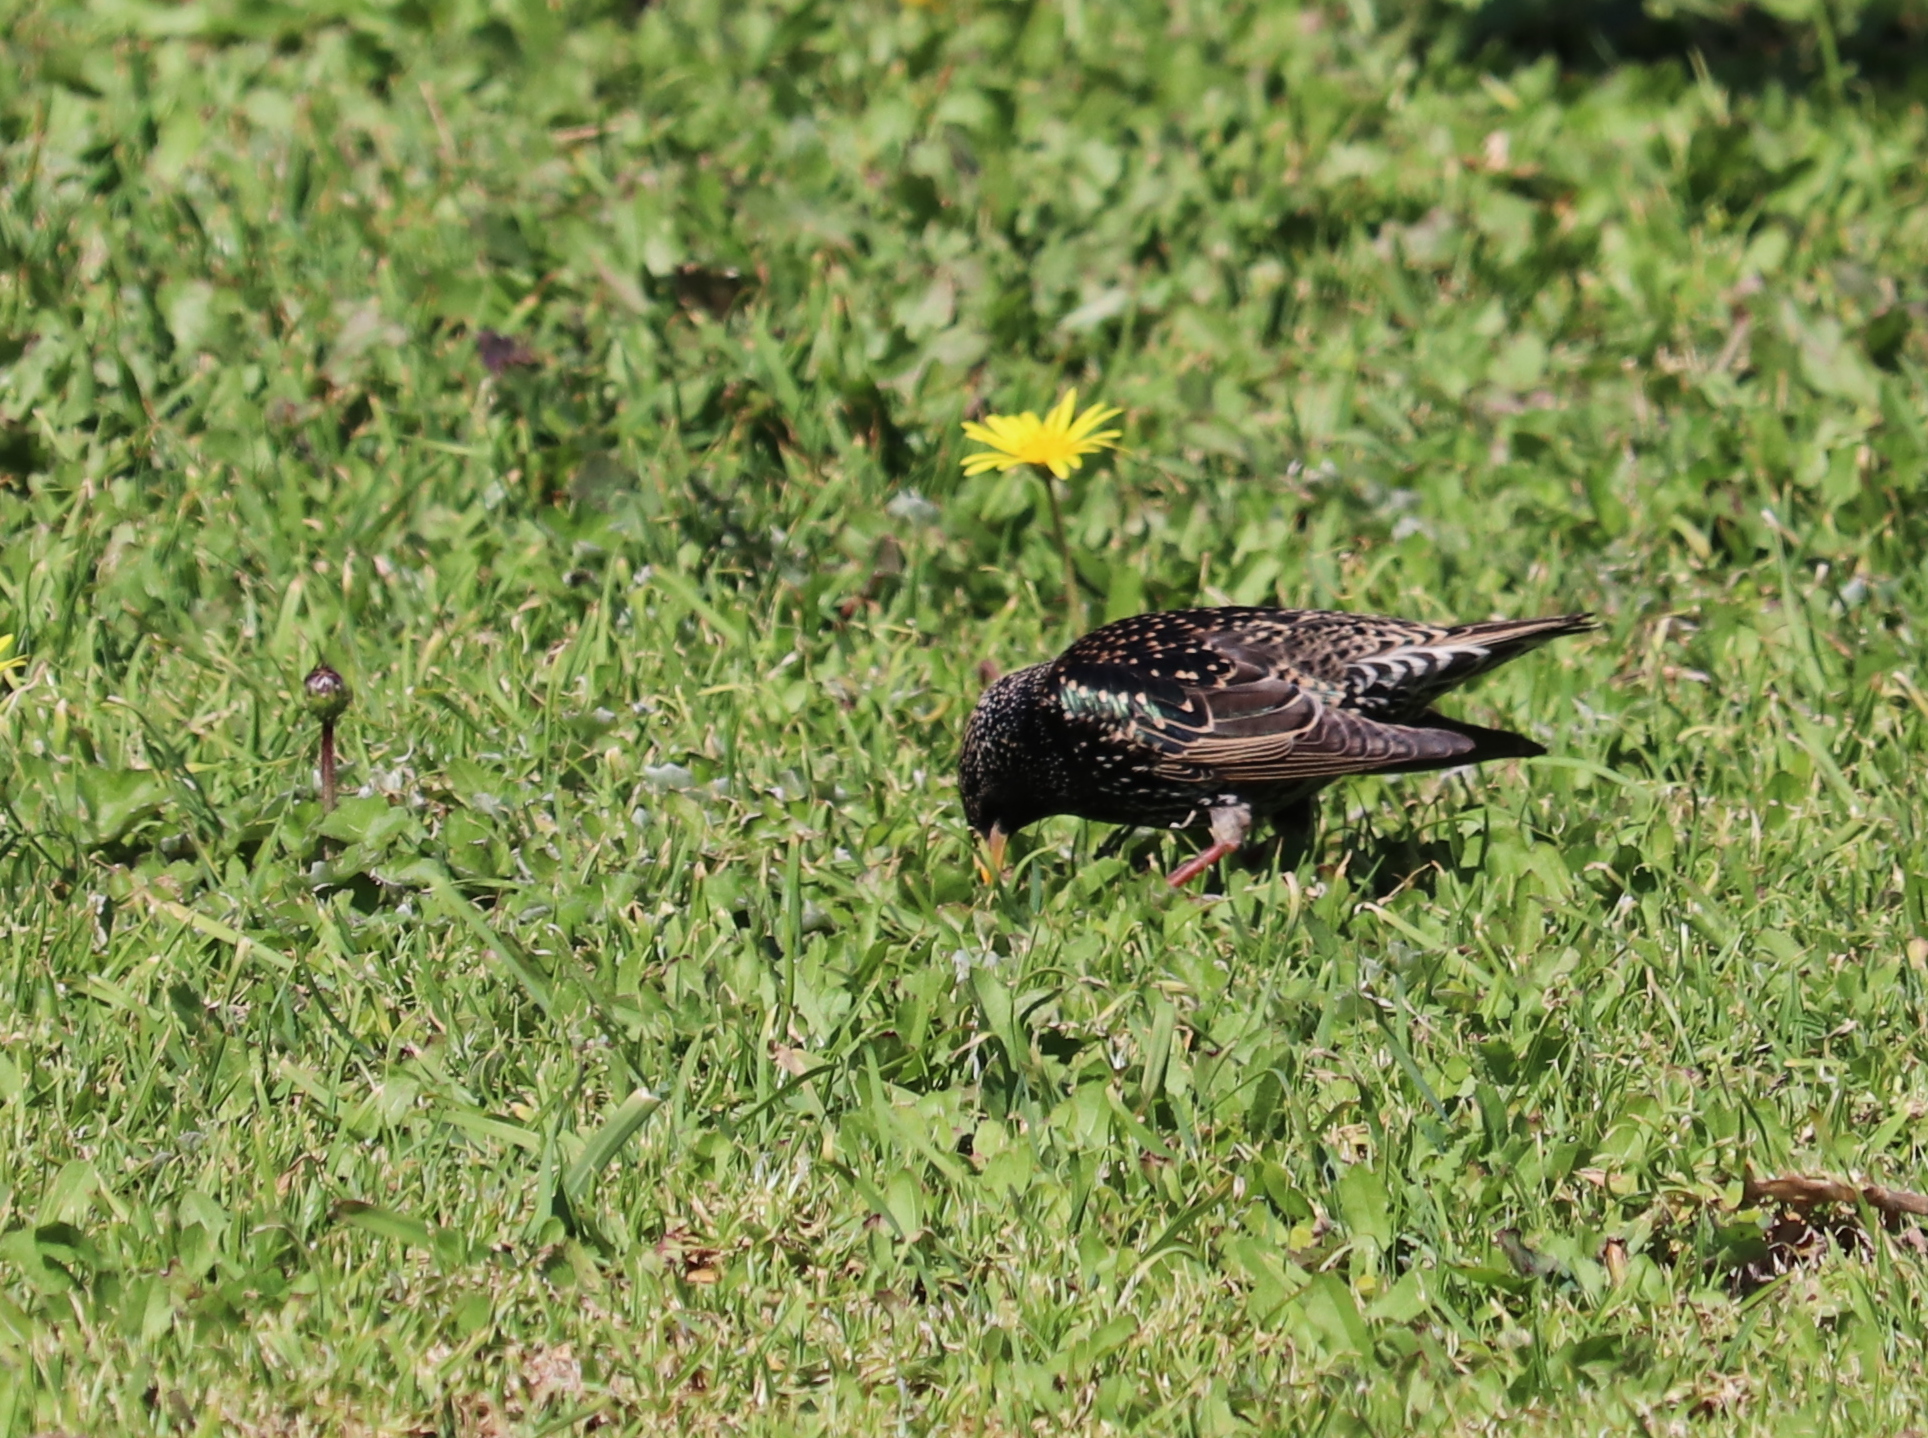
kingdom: Animalia
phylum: Chordata
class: Aves
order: Passeriformes
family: Sturnidae
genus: Sturnus
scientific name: Sturnus vulgaris
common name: Common starling
